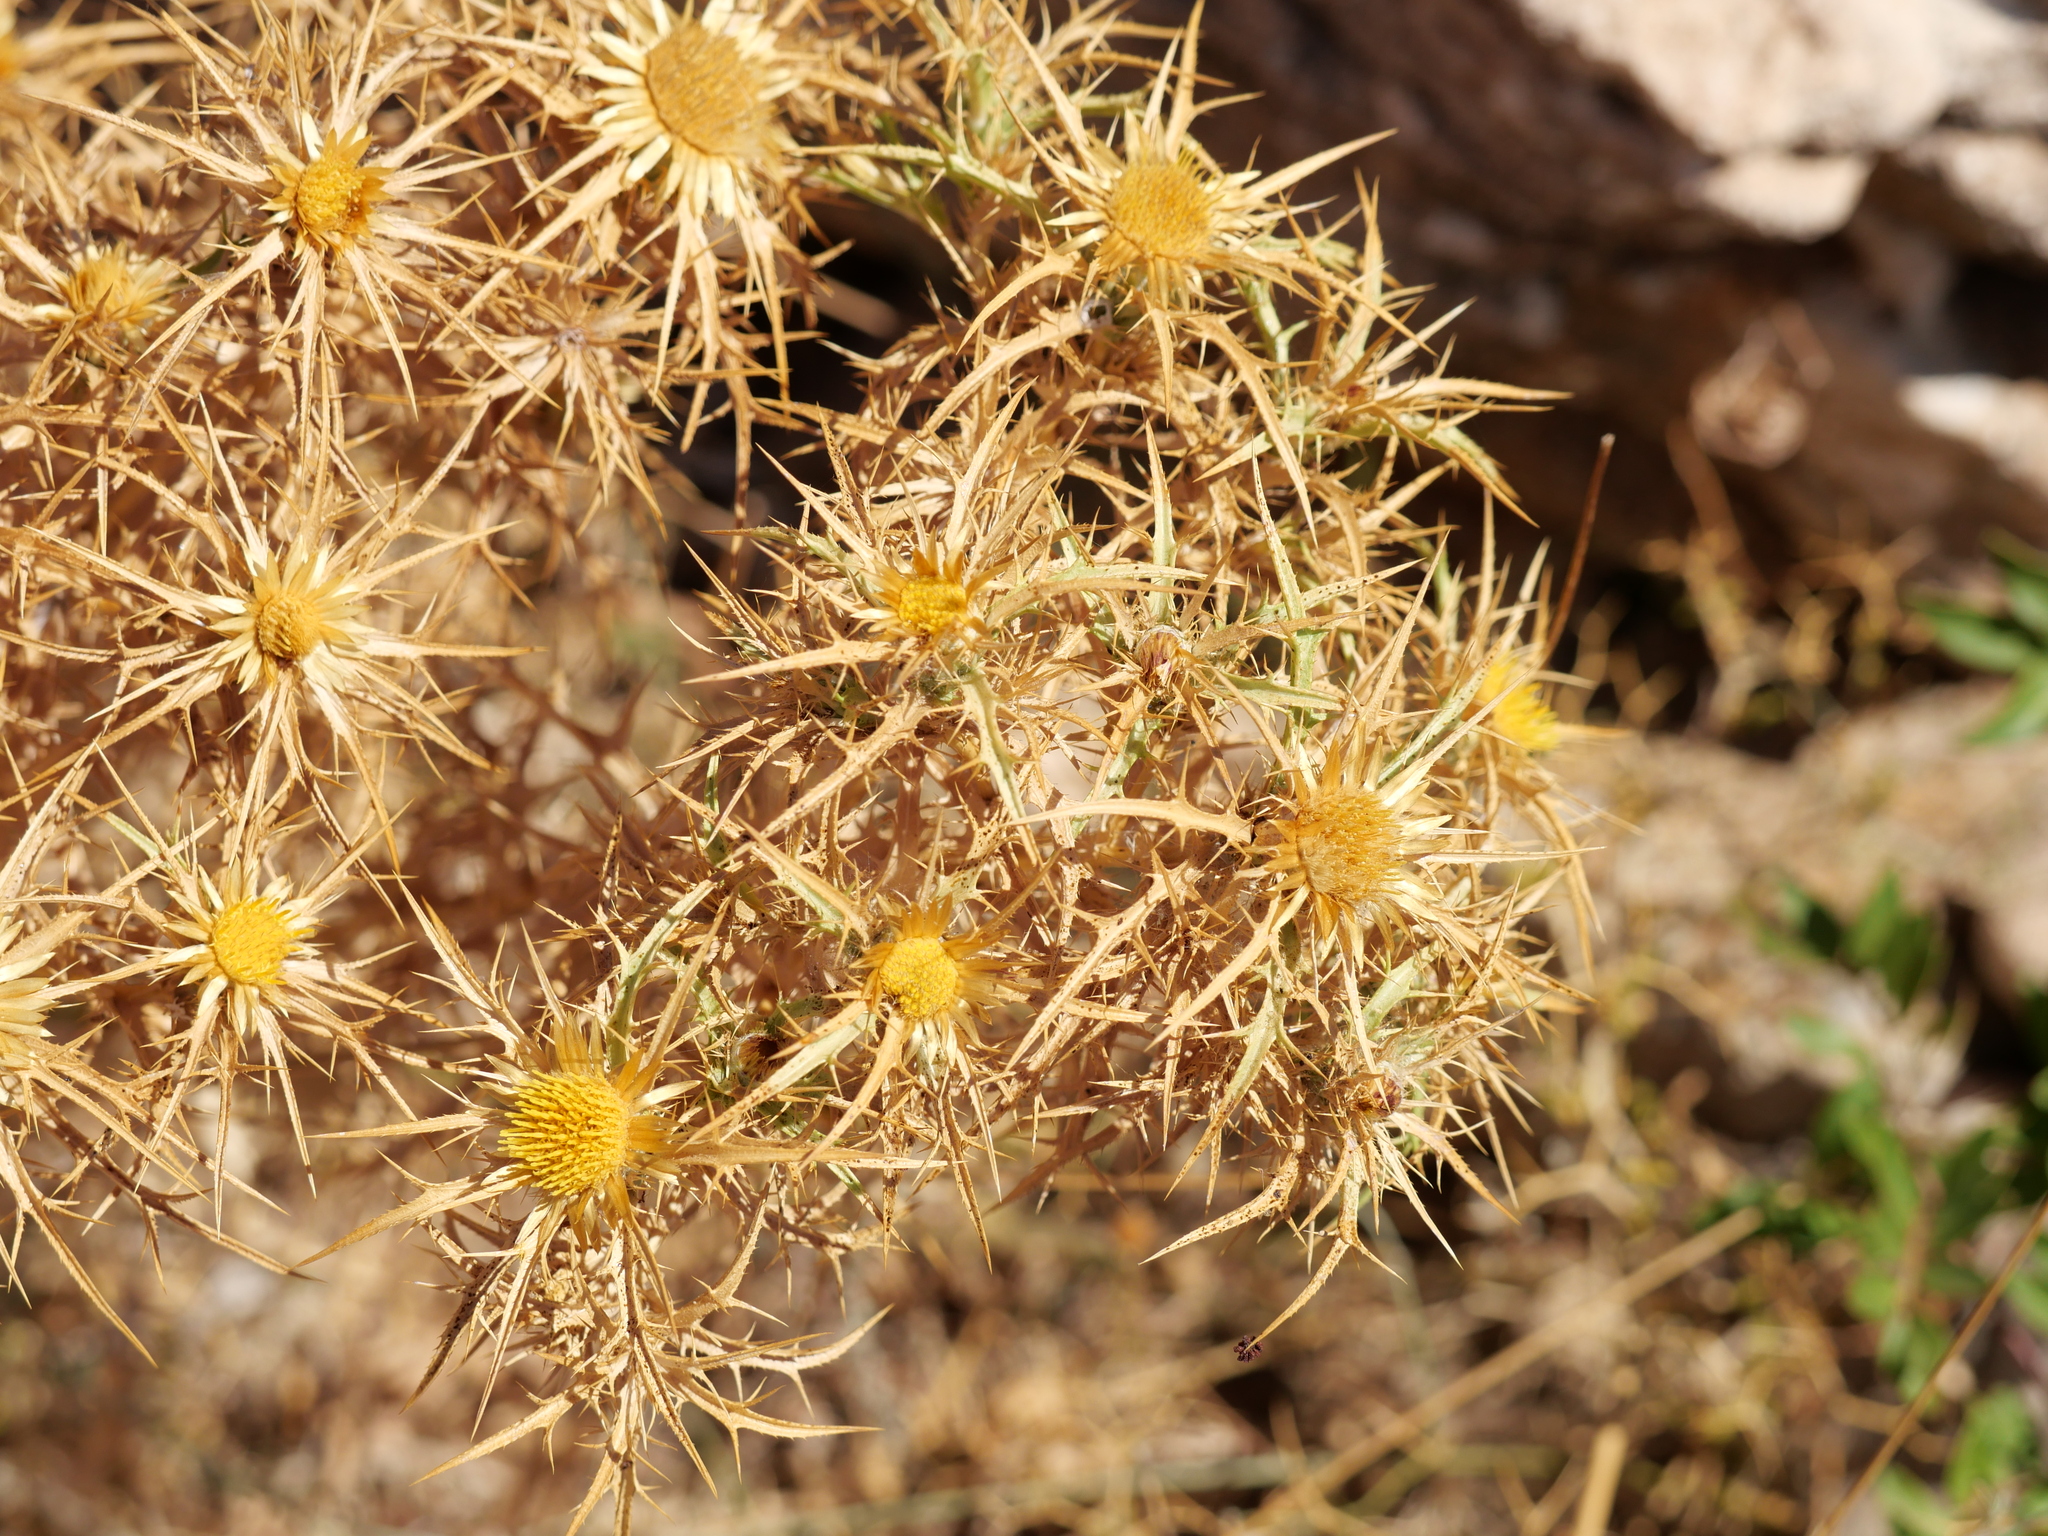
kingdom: Plantae
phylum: Tracheophyta
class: Magnoliopsida
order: Asterales
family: Asteraceae
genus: Carlina
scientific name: Carlina graeca
